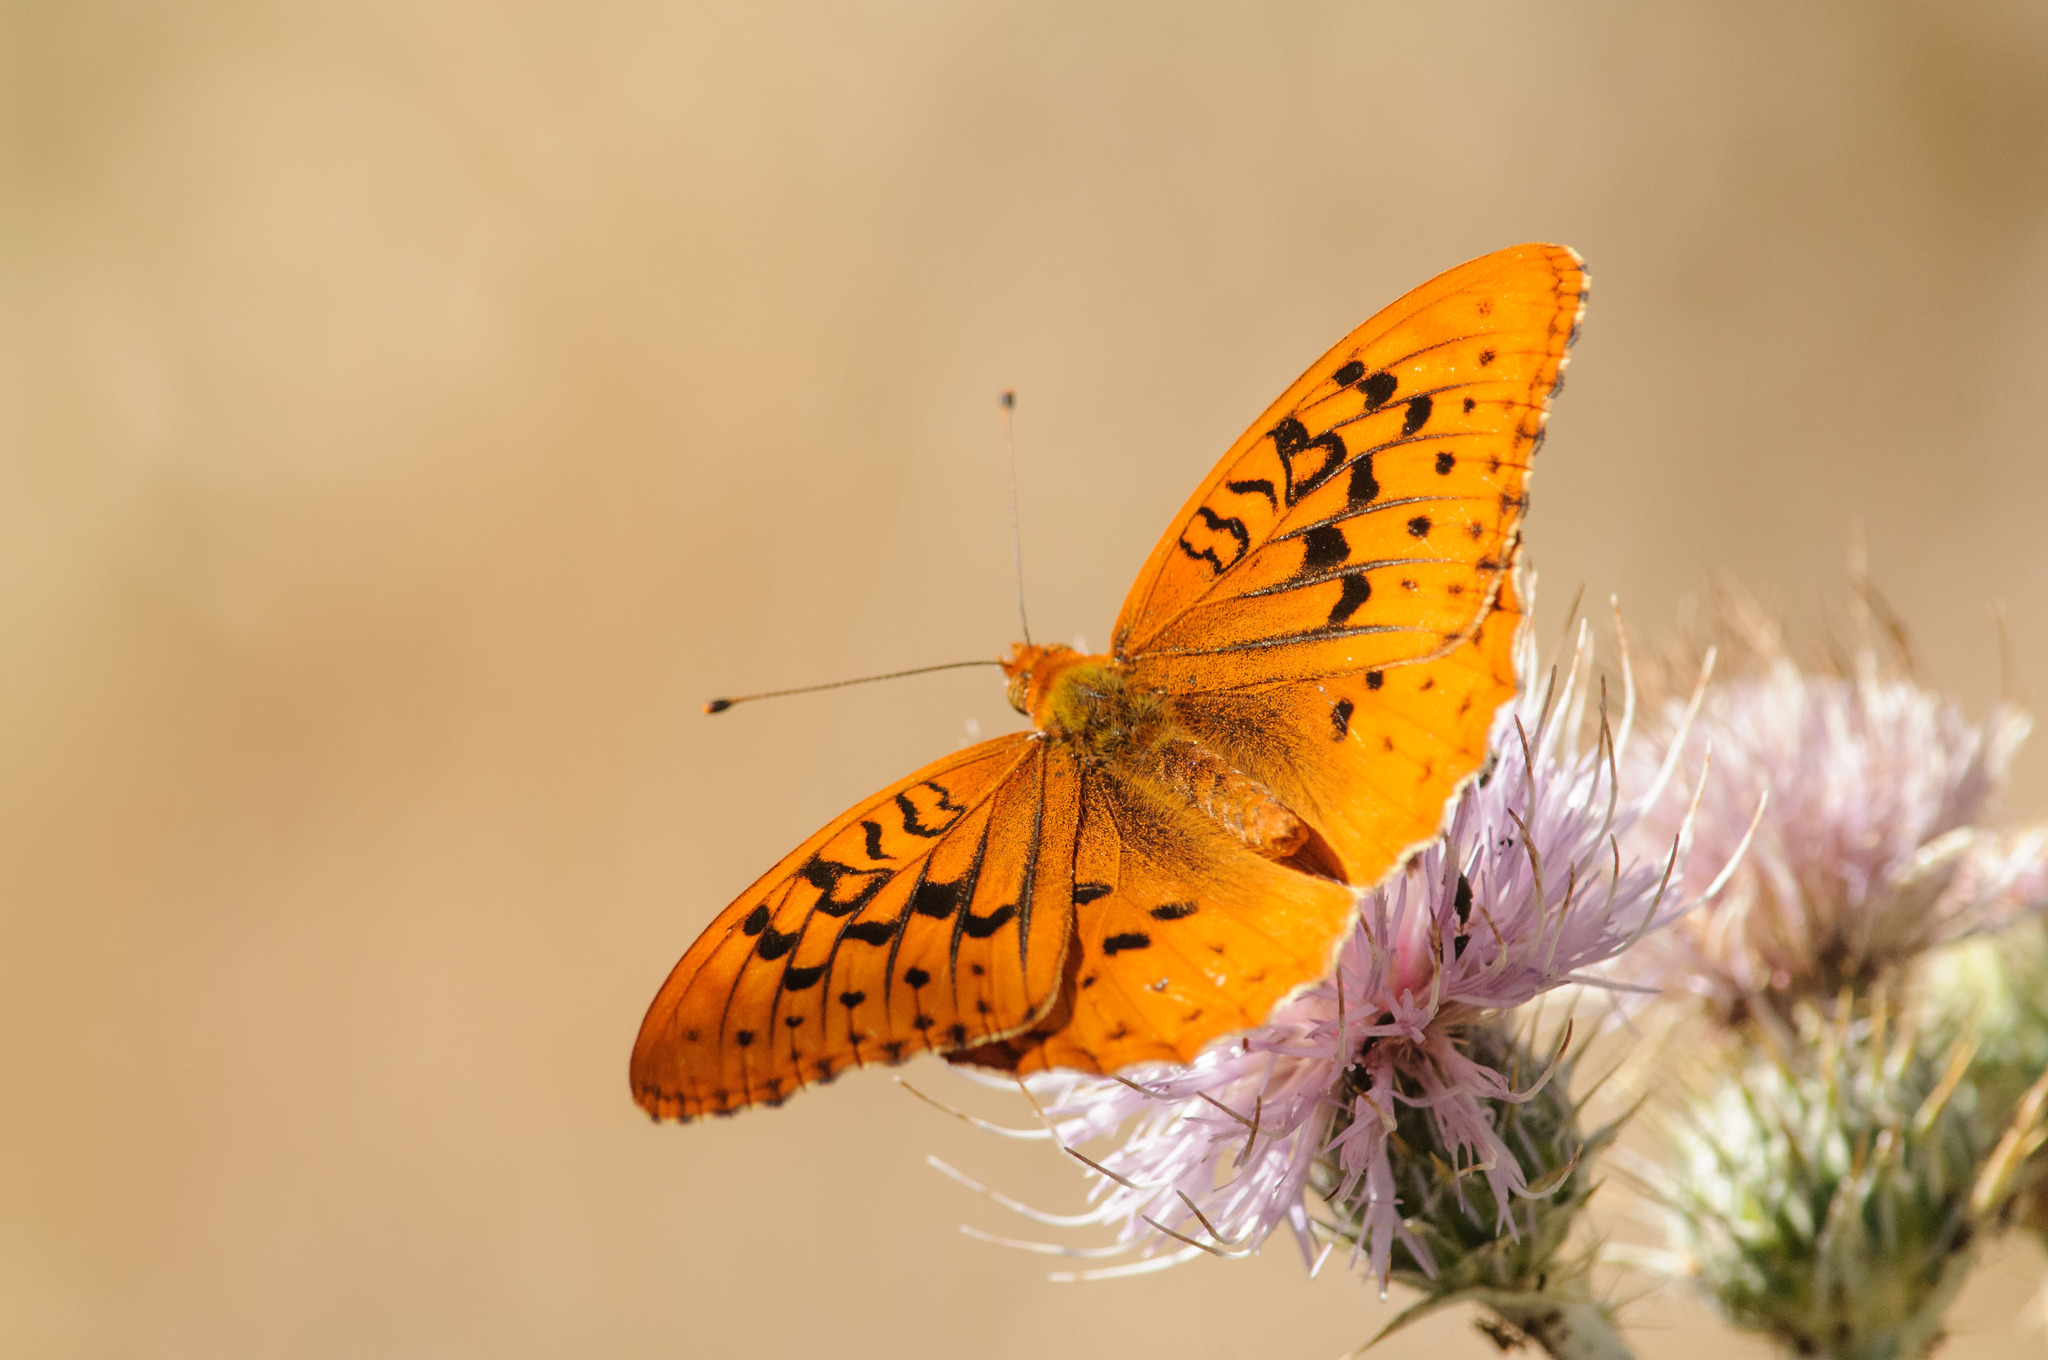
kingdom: Animalia
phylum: Arthropoda
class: Insecta
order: Lepidoptera
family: Nymphalidae
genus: Speyeria
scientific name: Speyeria cybele
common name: Great spangled fritillary
